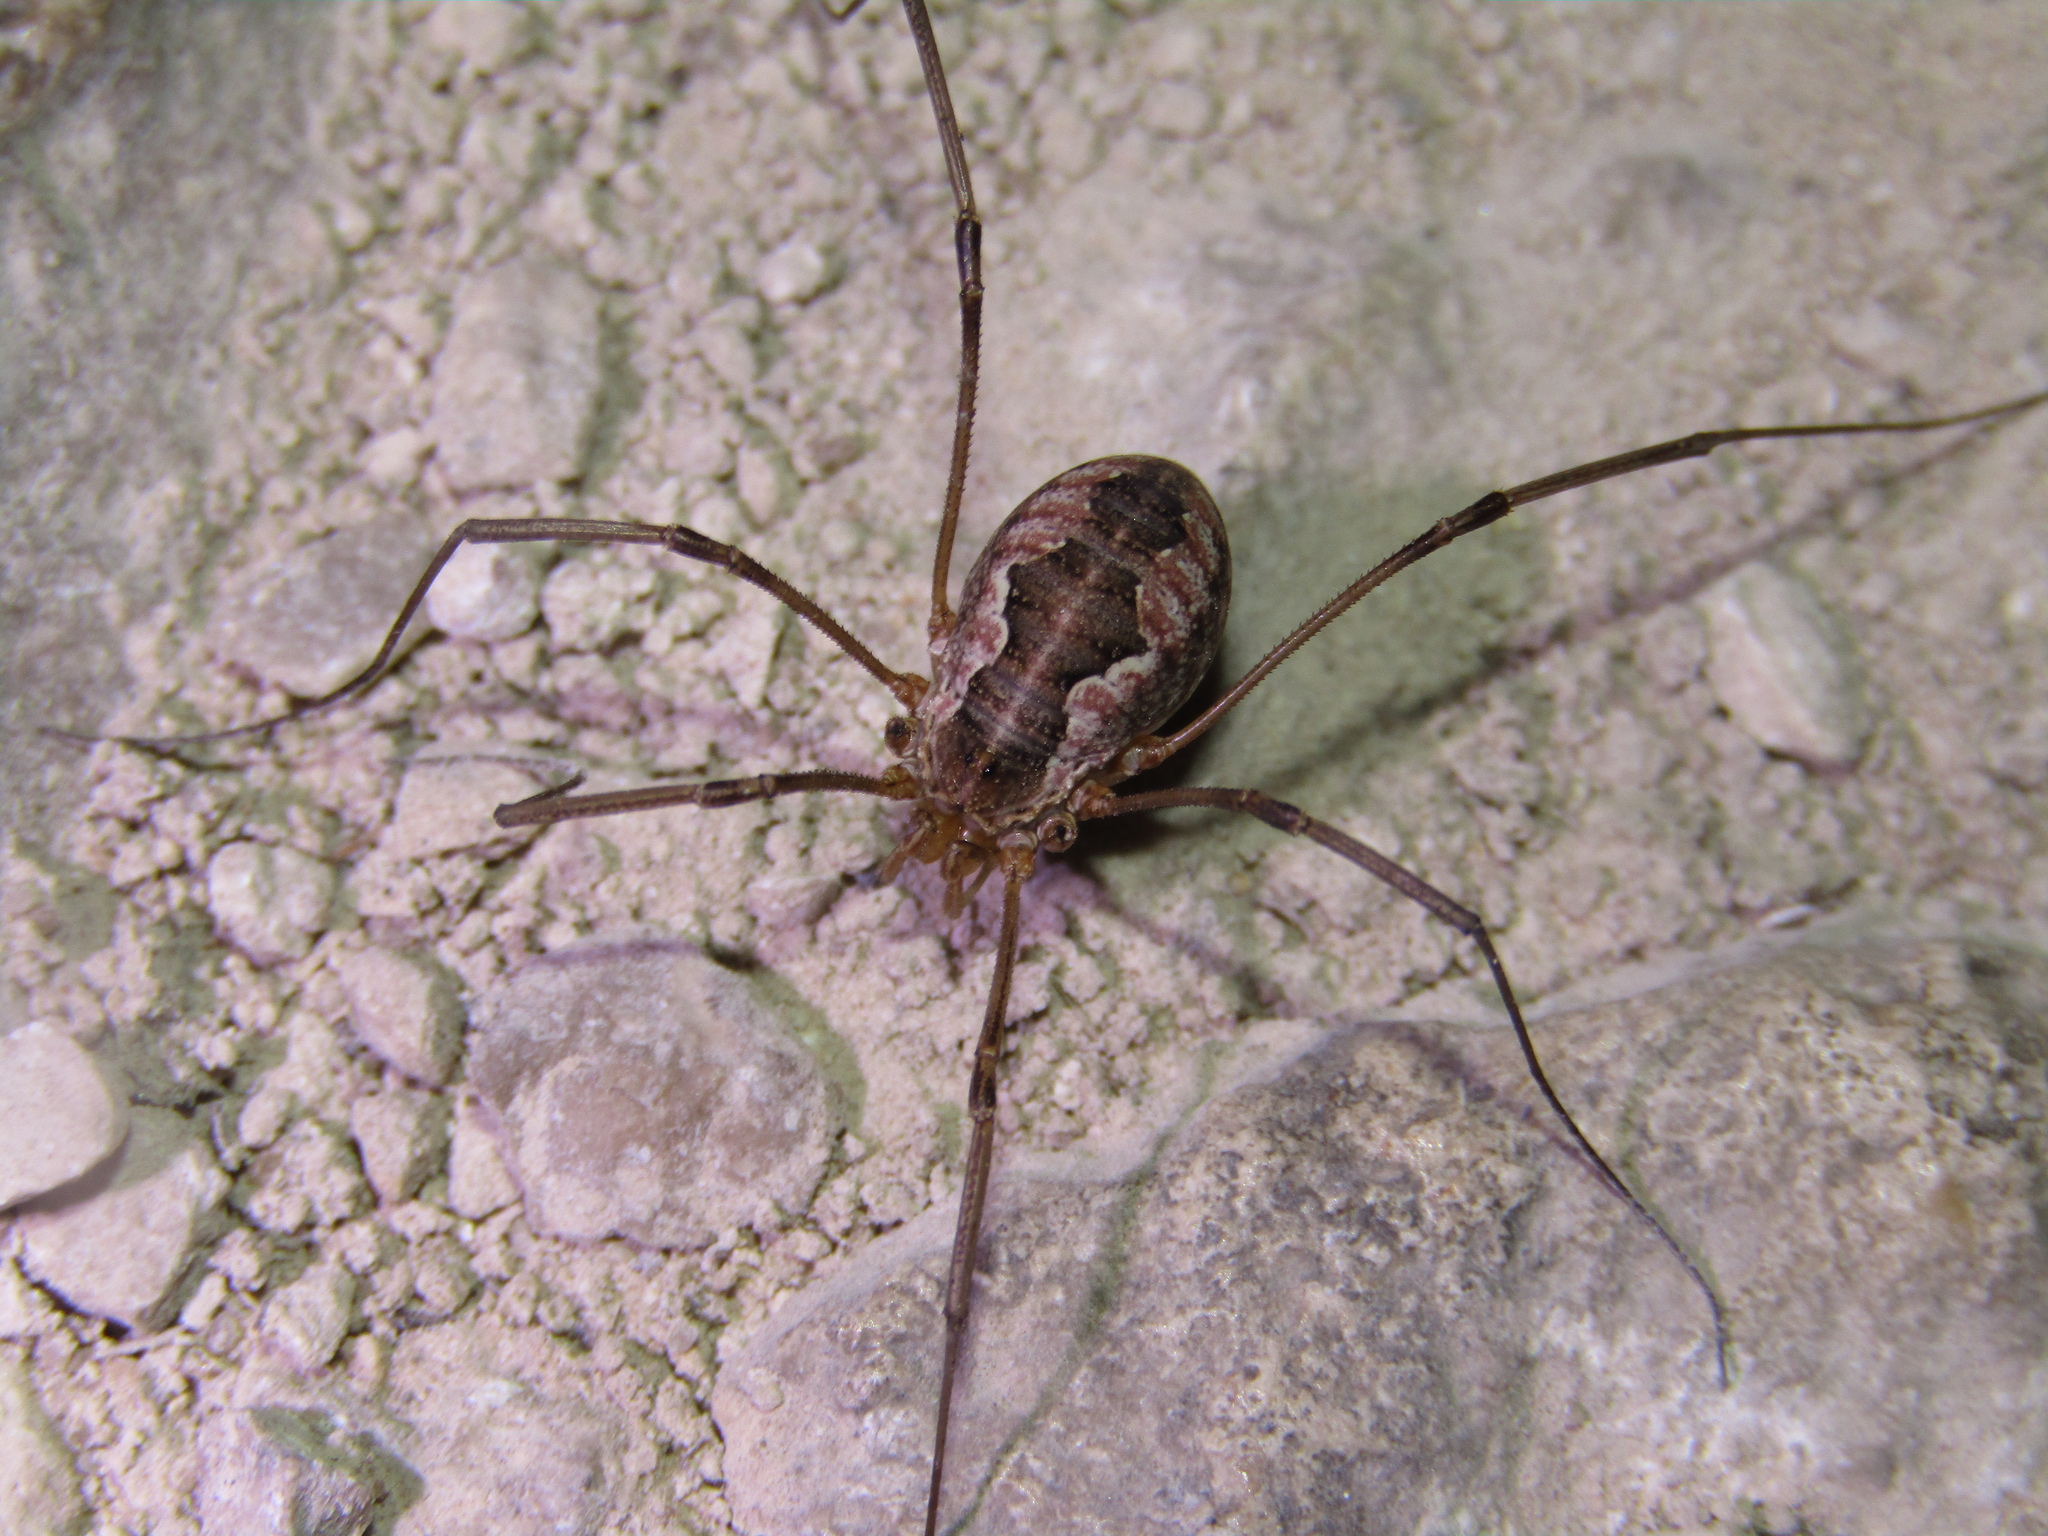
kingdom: Animalia
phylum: Arthropoda
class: Arachnida
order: Opiliones
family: Phalangiidae
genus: Phalangium
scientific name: Phalangium opilio
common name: Daddy longleg
